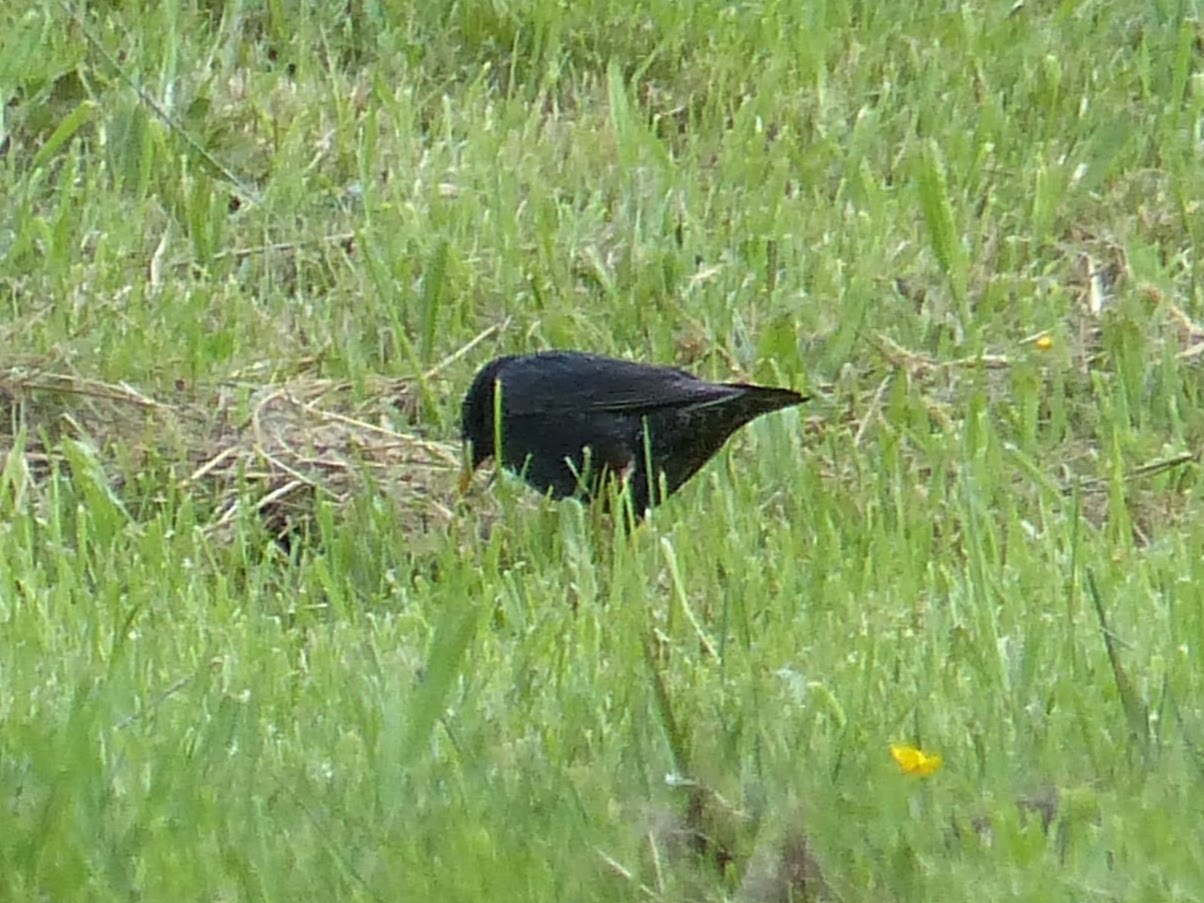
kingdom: Animalia
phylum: Chordata
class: Aves
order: Passeriformes
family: Sturnidae
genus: Sturnus
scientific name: Sturnus unicolor
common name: Spotless starling
